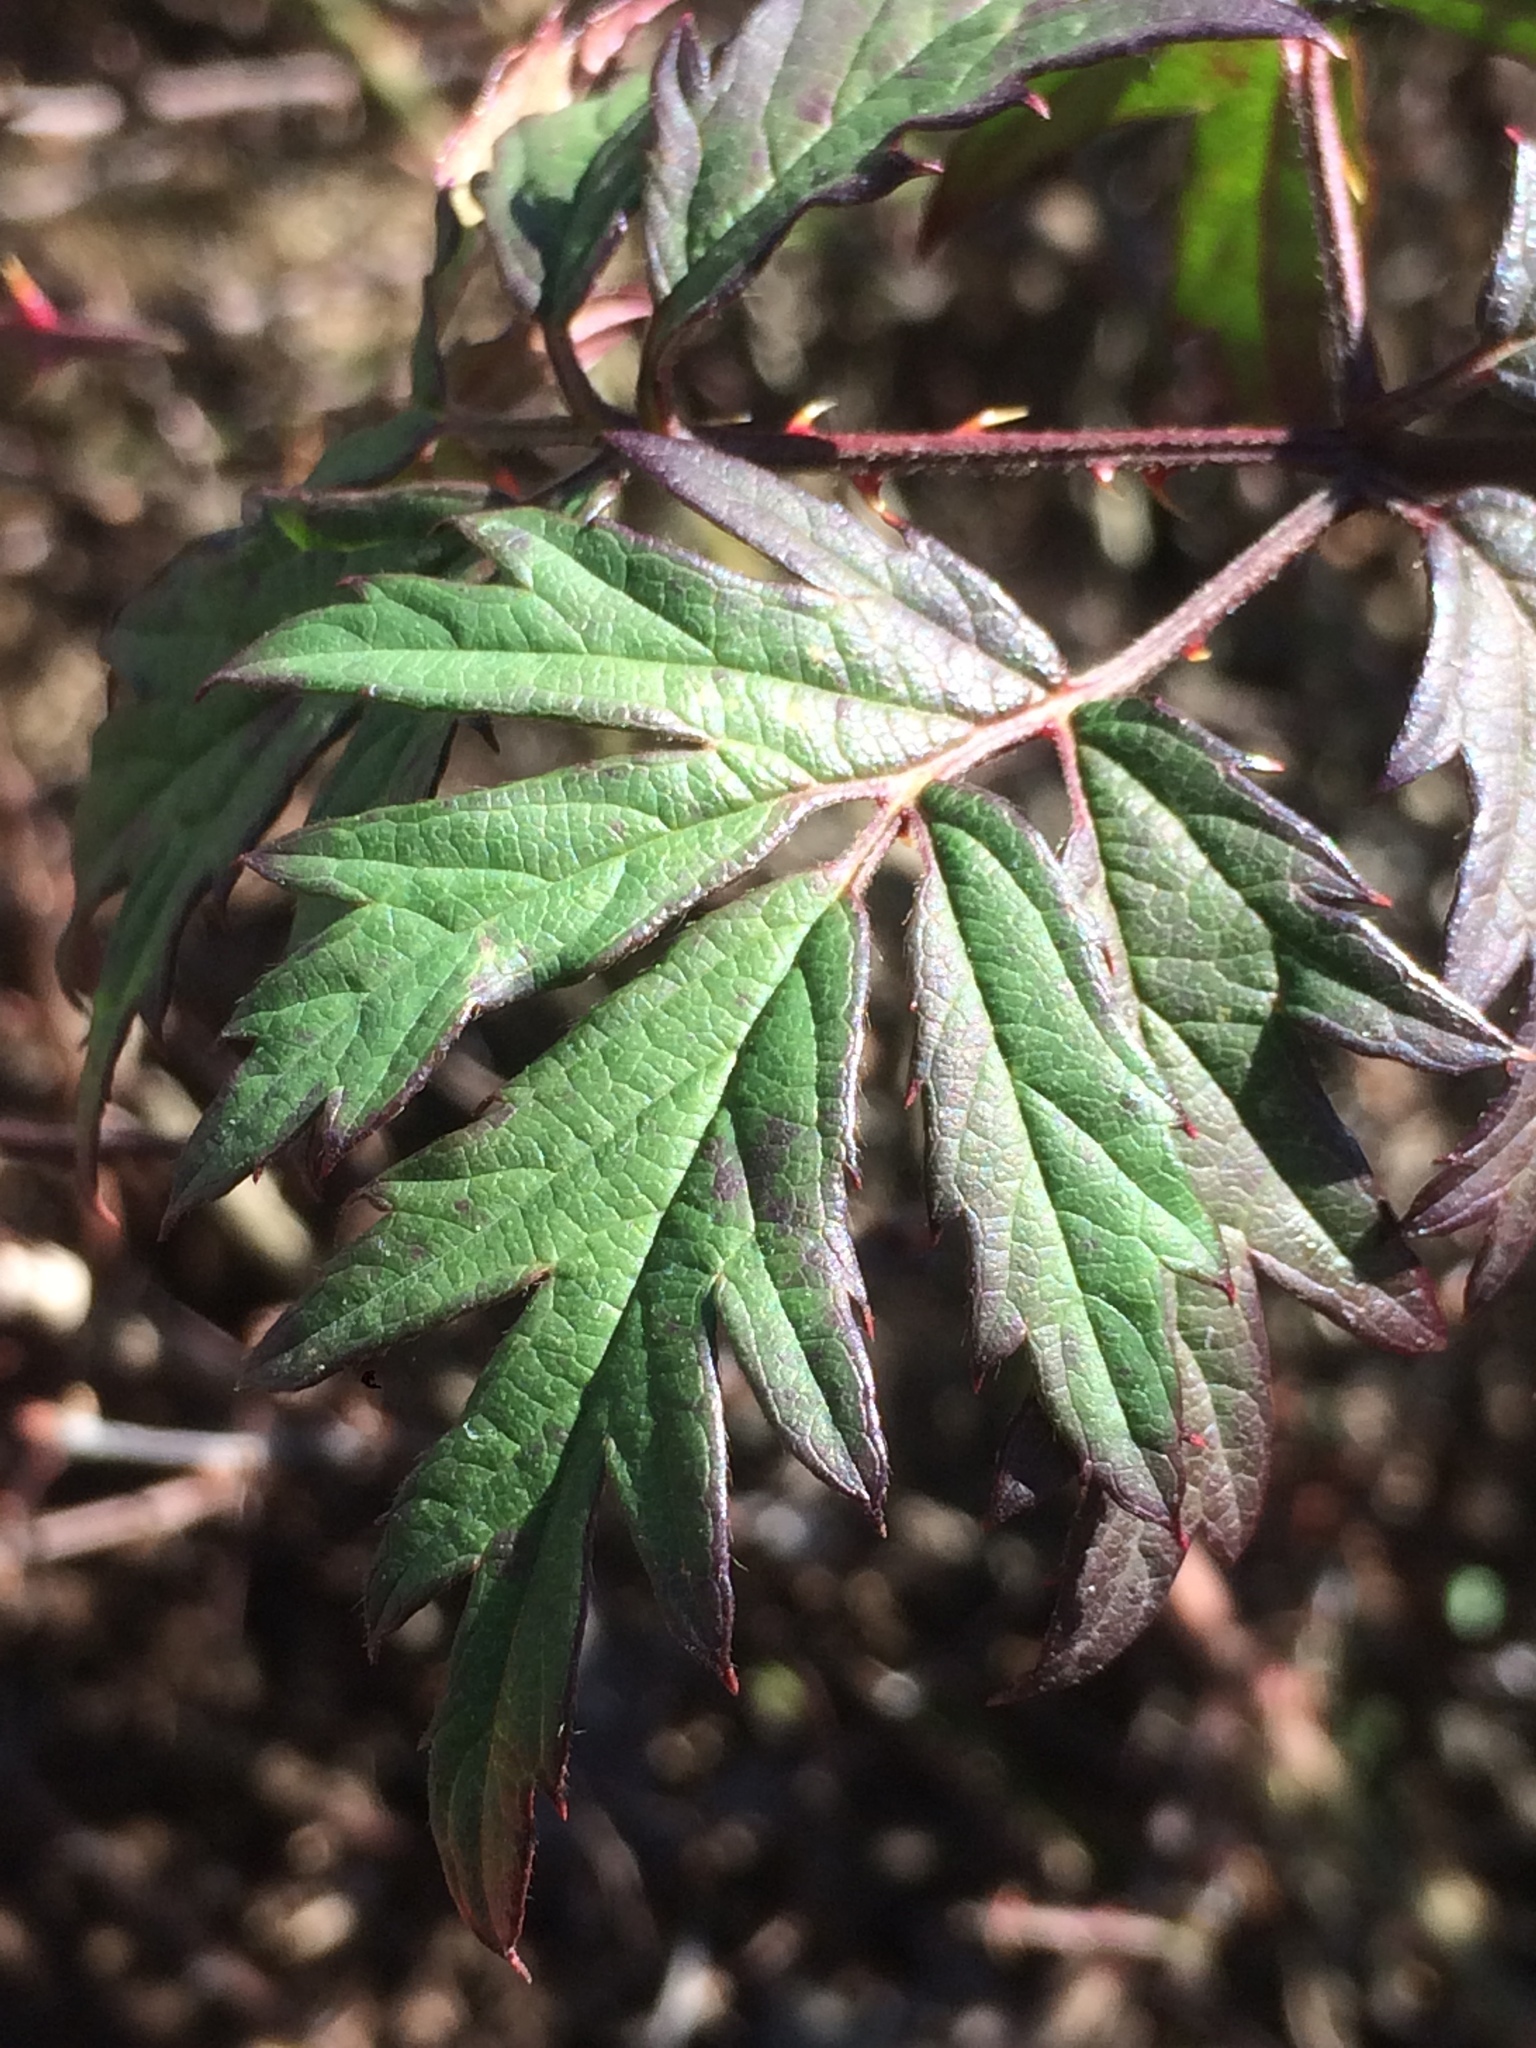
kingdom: Plantae
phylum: Tracheophyta
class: Magnoliopsida
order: Rosales
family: Rosaceae
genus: Rubus
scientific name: Rubus laciniatus
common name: Evergreen blackberry
